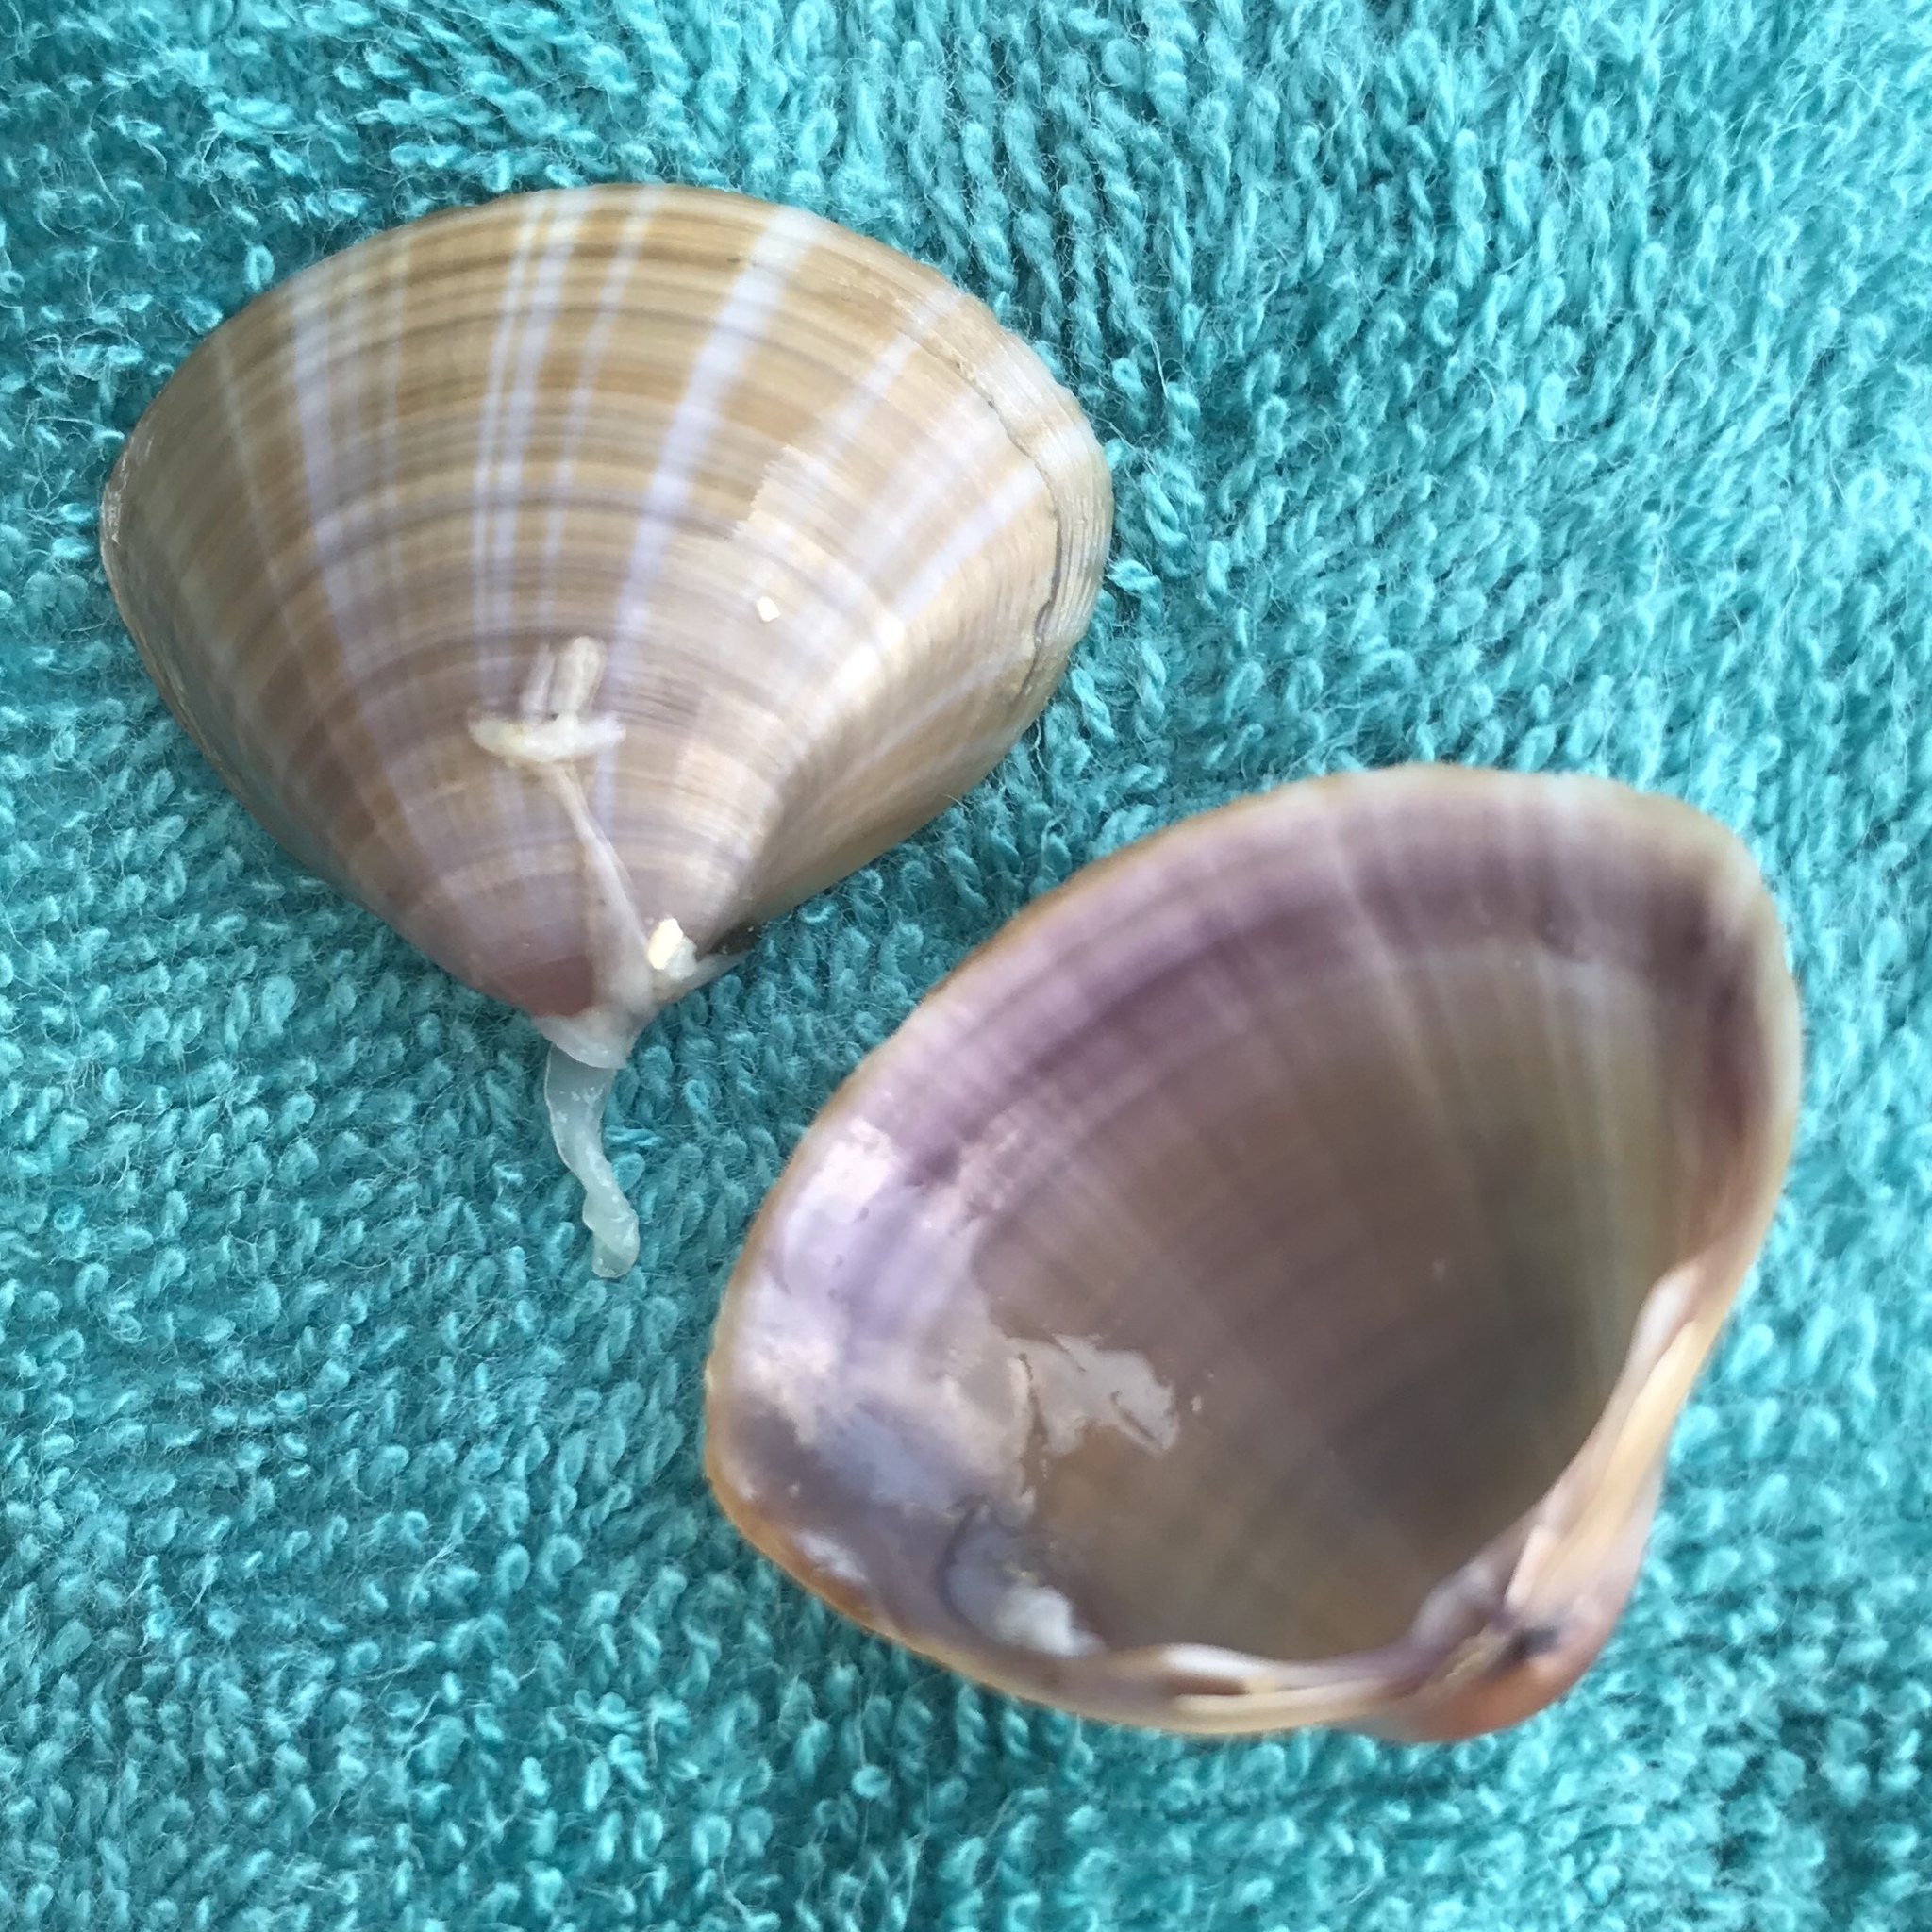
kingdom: Animalia
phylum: Mollusca
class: Bivalvia
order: Venerida
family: Mactridae
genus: Mactra
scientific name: Mactra stultorum
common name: Rayed trough shell
